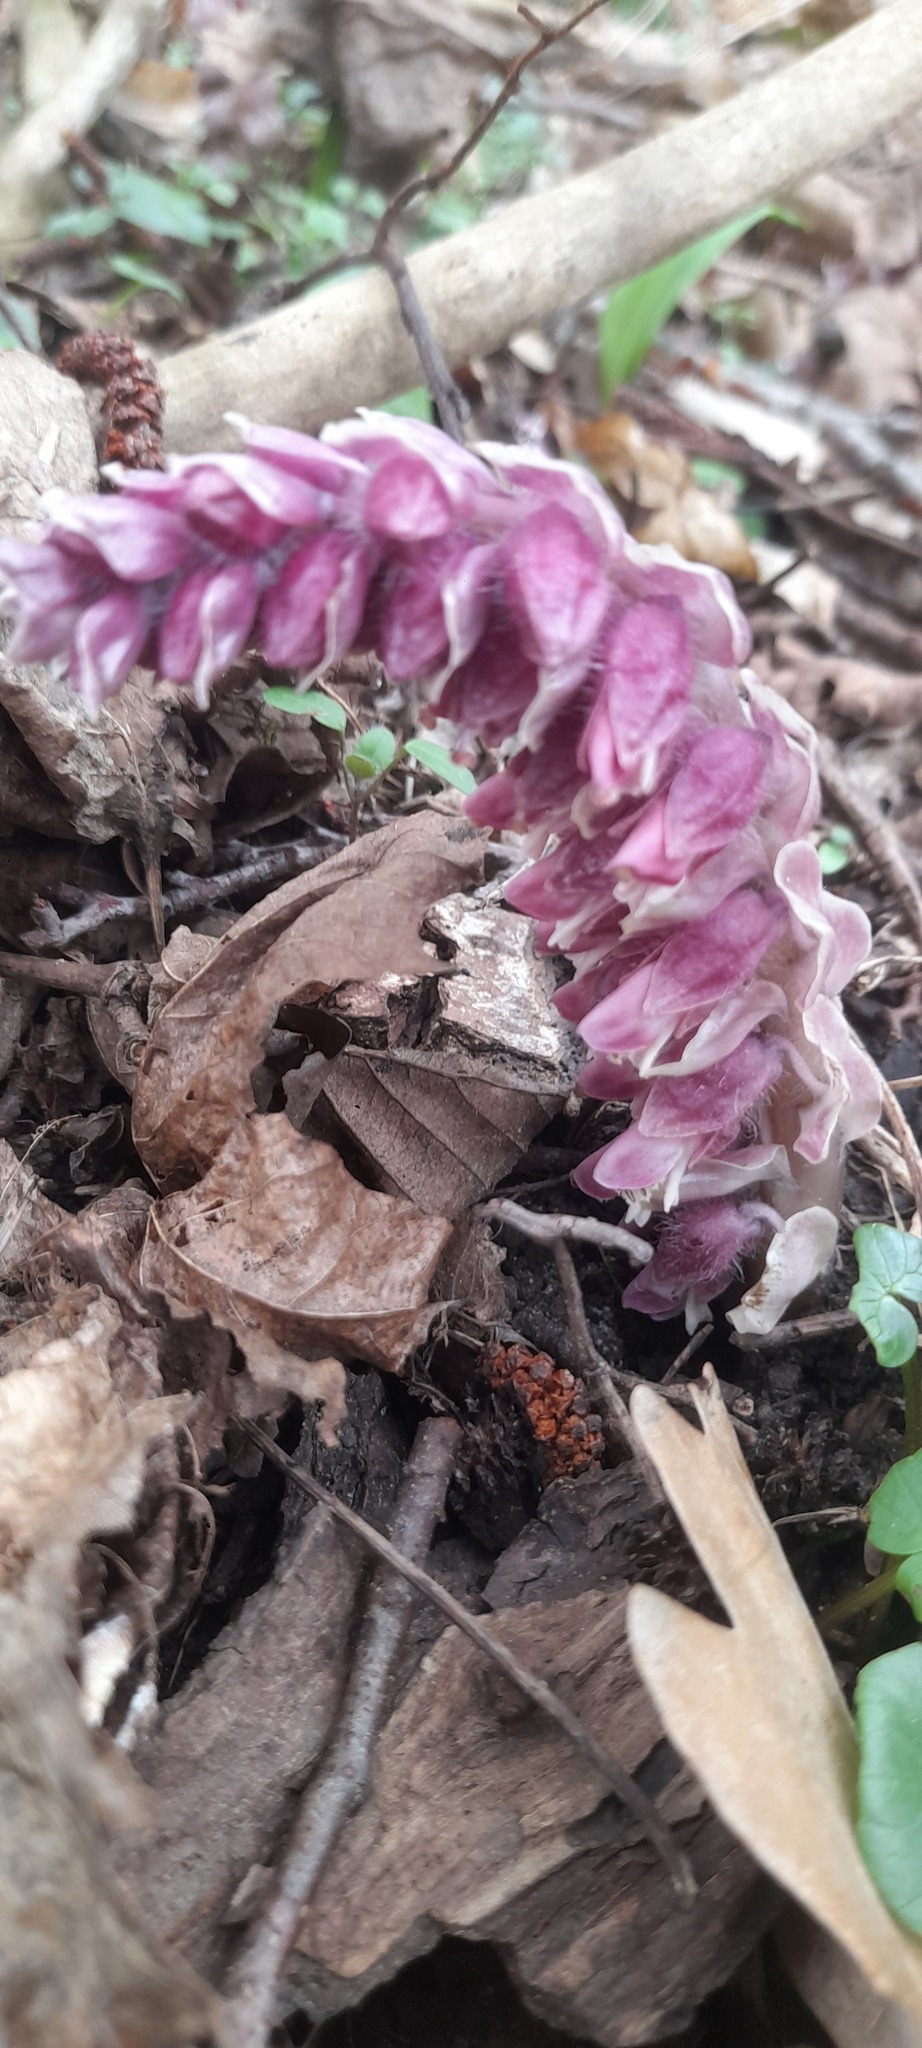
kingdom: Plantae
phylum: Tracheophyta
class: Magnoliopsida
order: Lamiales
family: Orobanchaceae
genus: Lathraea
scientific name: Lathraea squamaria
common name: Toothwort
